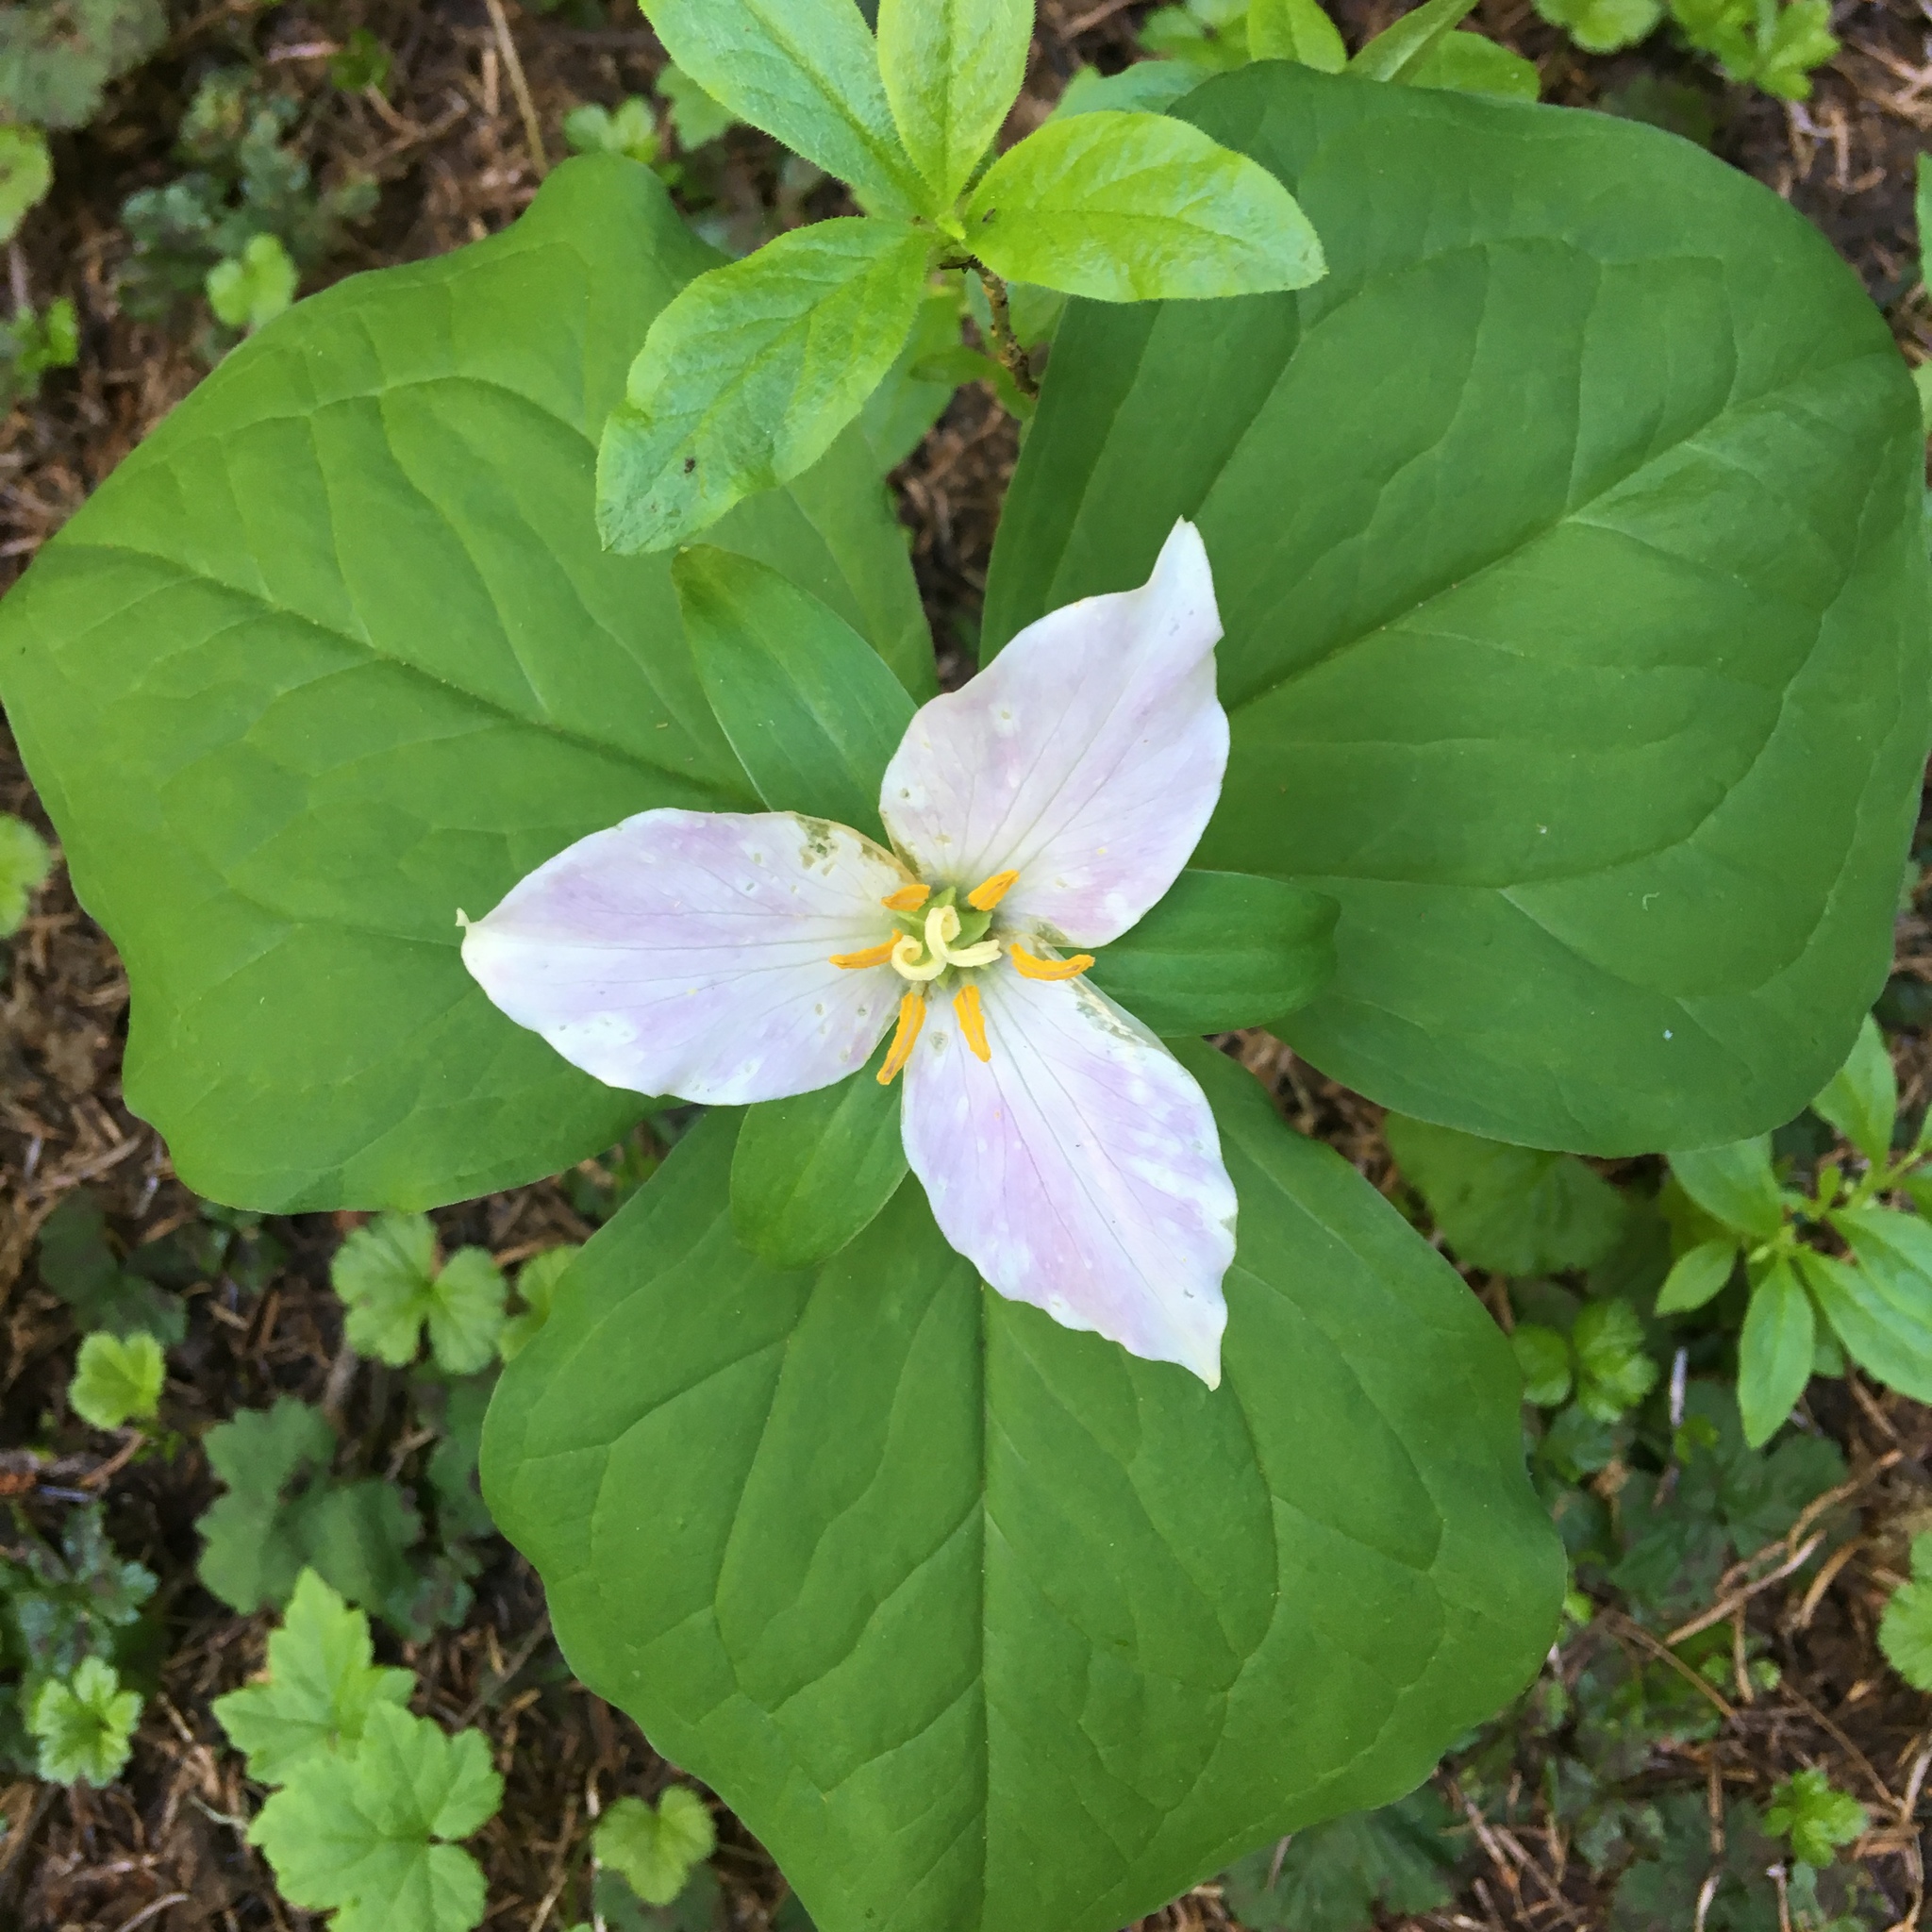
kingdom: Plantae
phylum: Tracheophyta
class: Liliopsida
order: Liliales
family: Melanthiaceae
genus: Trillium
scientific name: Trillium ovatum
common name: Pacific trillium
